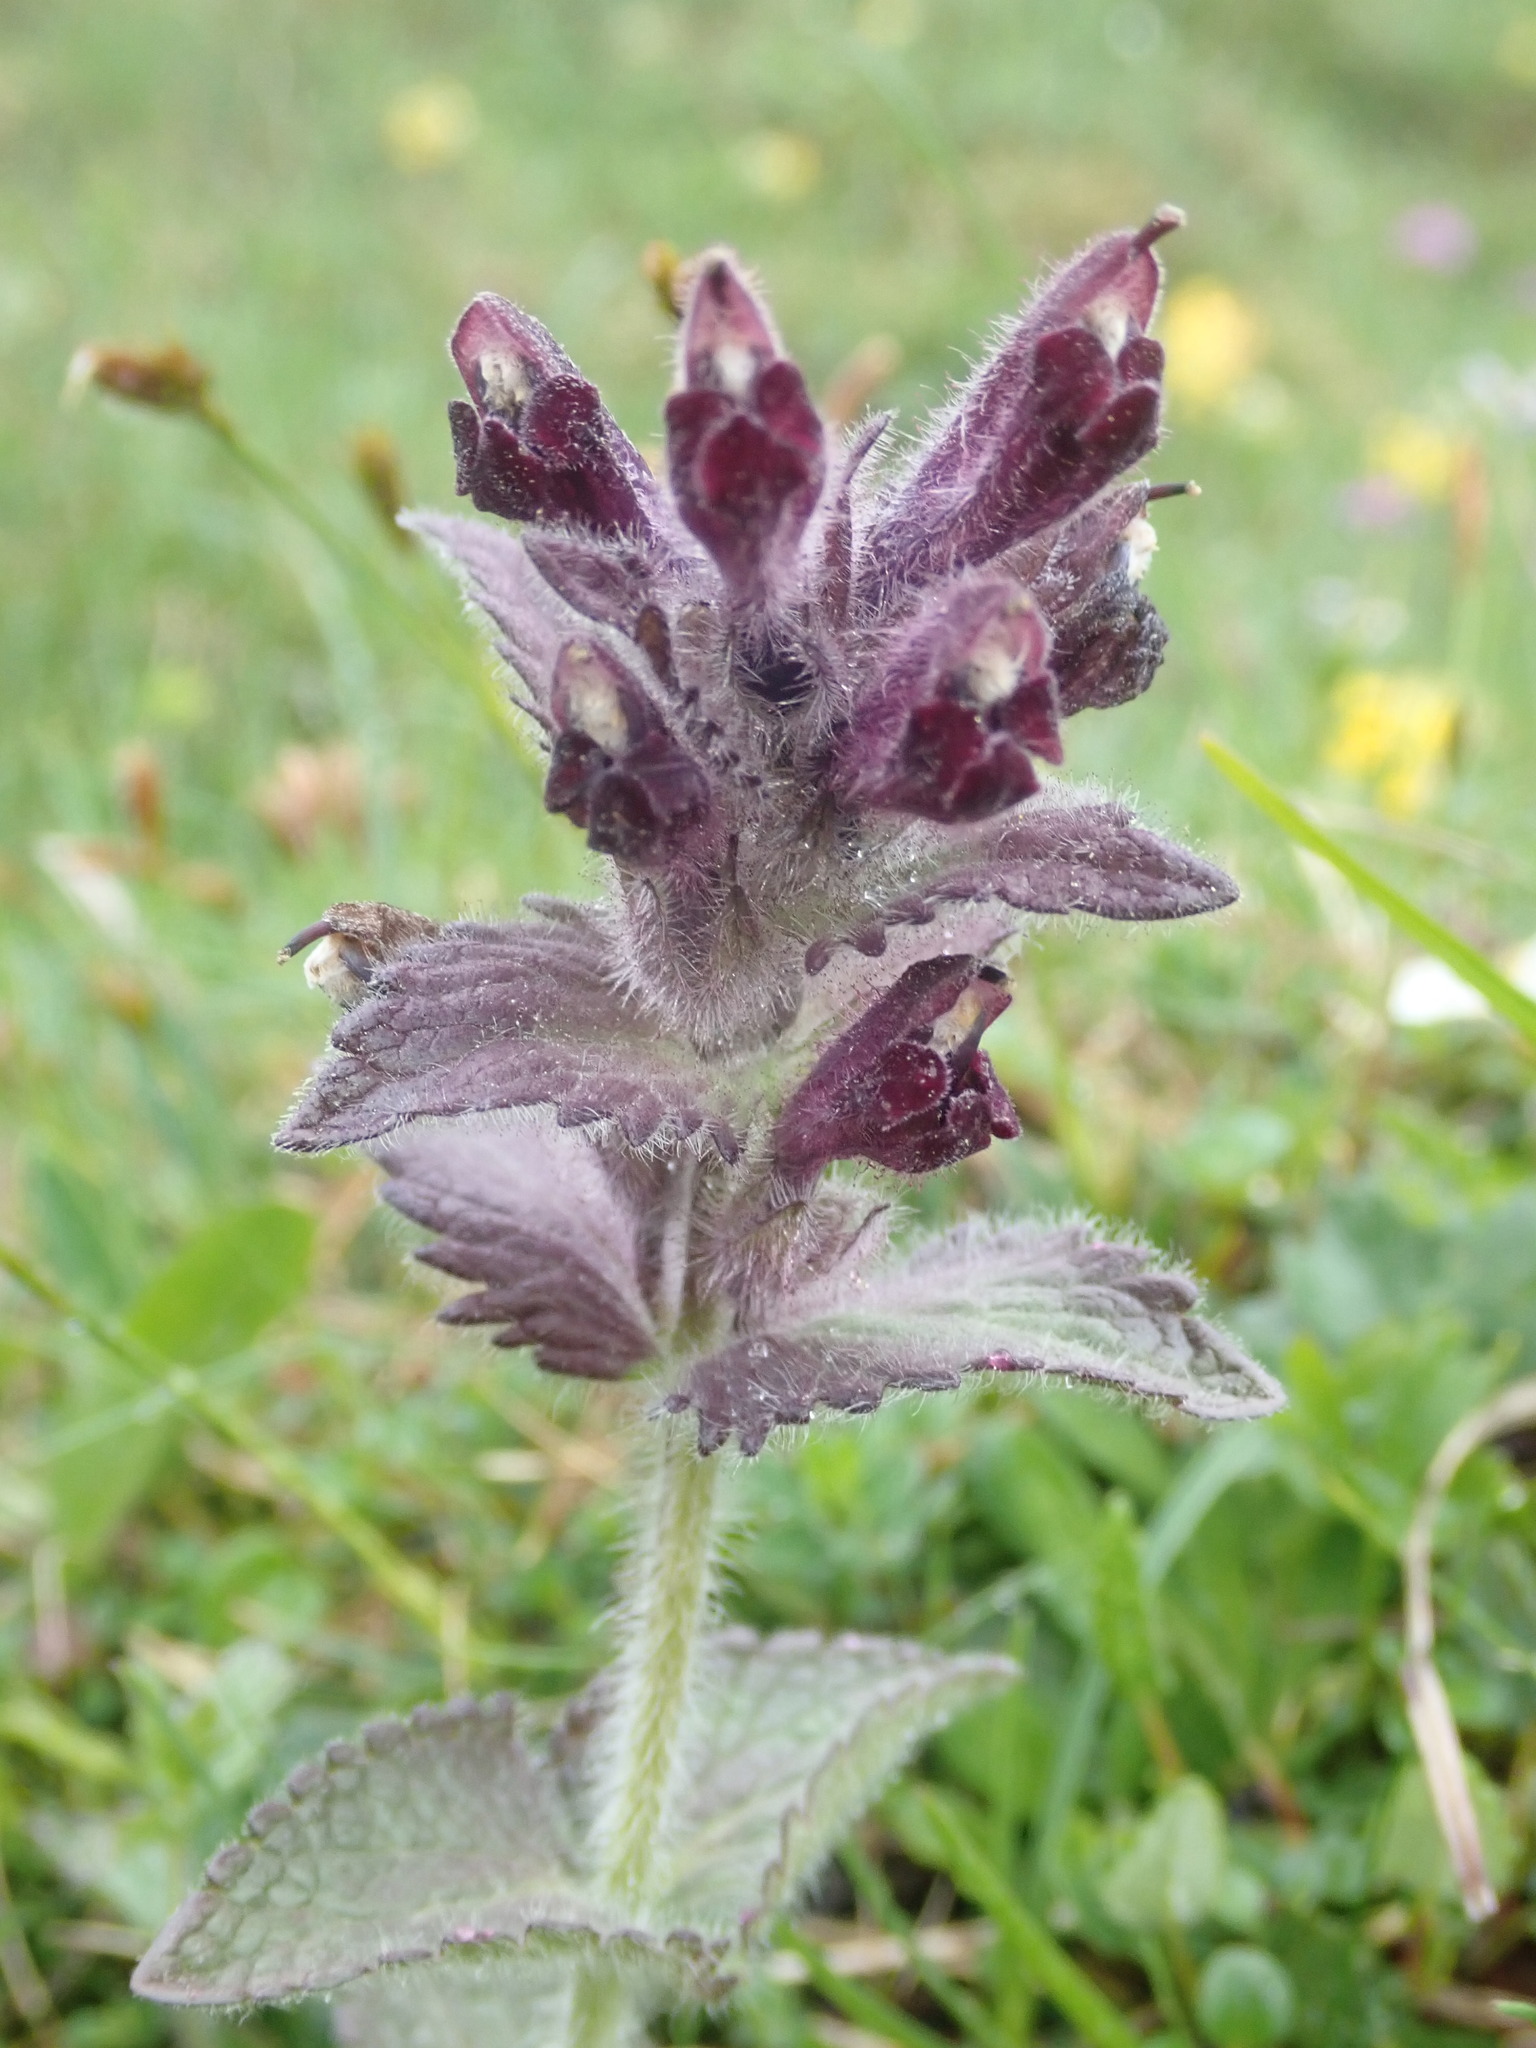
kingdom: Plantae
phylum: Tracheophyta
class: Magnoliopsida
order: Lamiales
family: Orobanchaceae
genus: Bartsia
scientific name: Bartsia alpina
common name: Alpine bartsia
